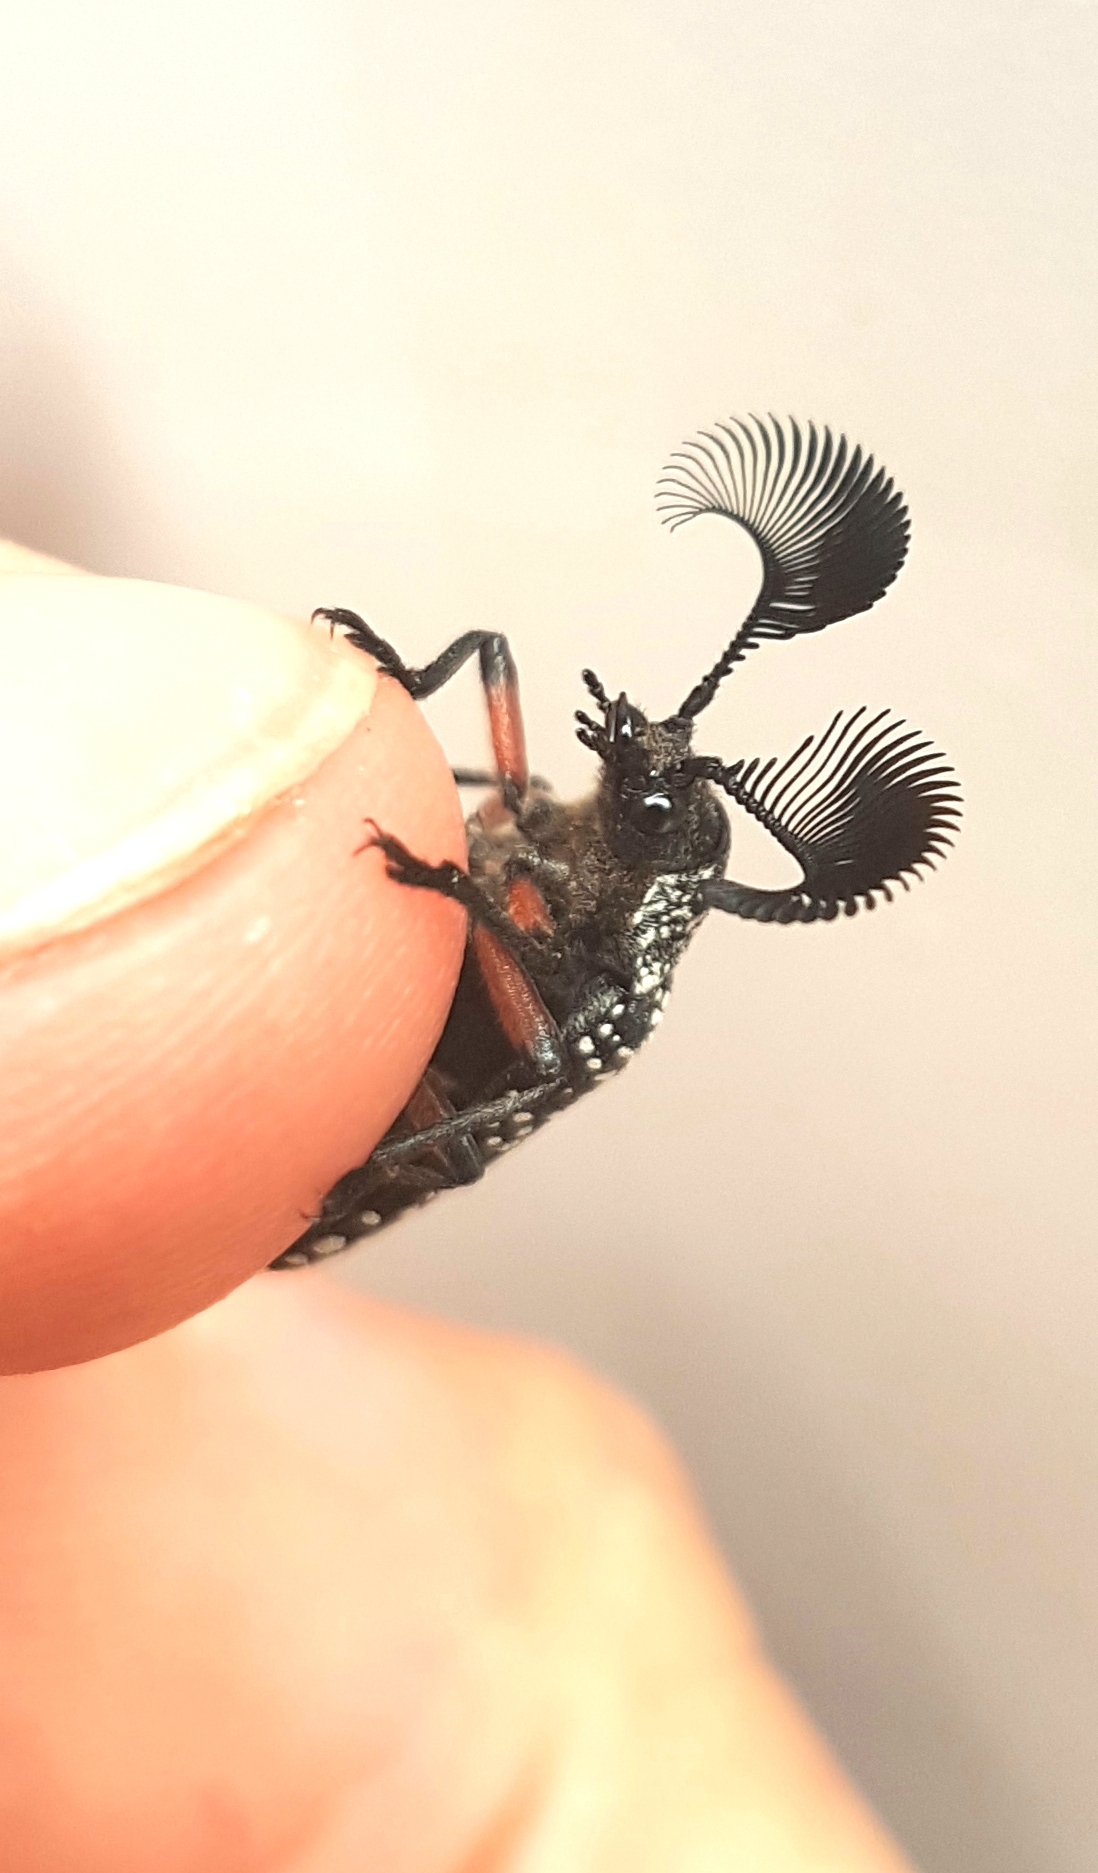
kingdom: Animalia
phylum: Arthropoda
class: Insecta
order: Coleoptera
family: Rhipiceridae
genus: Rhipicera
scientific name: Rhipicera femorata
